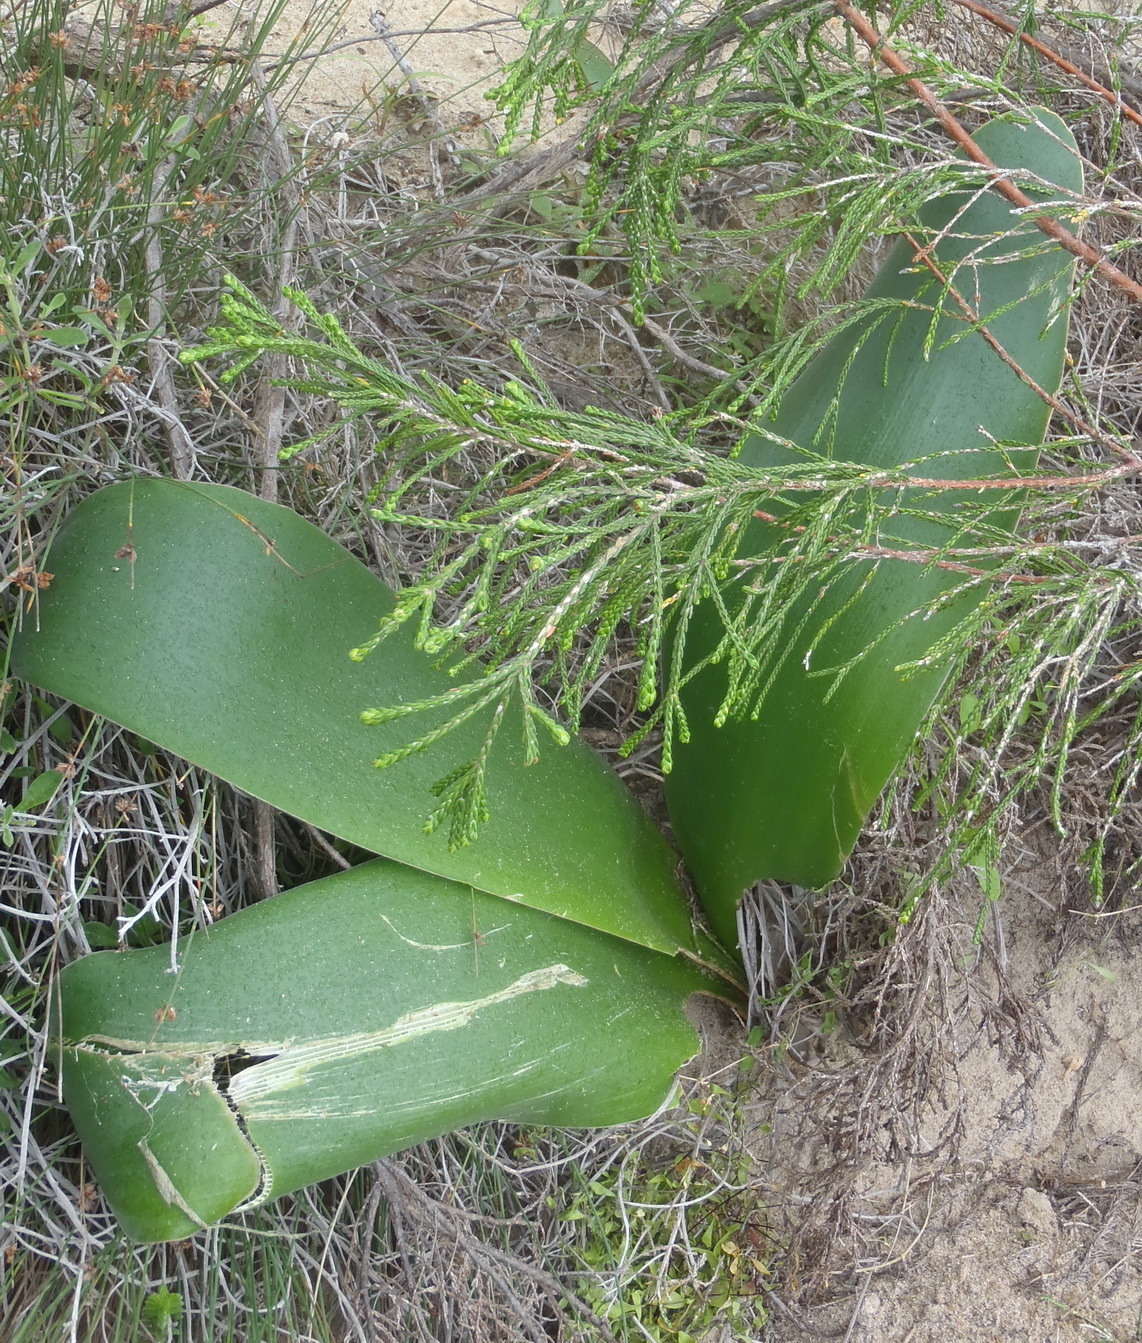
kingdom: Plantae
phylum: Tracheophyta
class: Liliopsida
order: Asparagales
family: Amaryllidaceae
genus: Brunsvigia
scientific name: Brunsvigia orientalis
